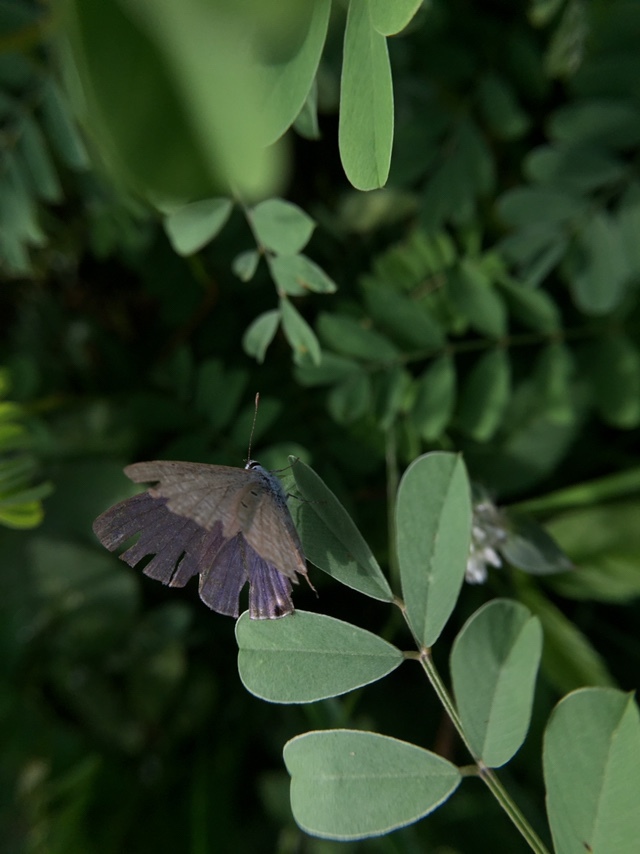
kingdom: Animalia
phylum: Arthropoda
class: Insecta
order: Lepidoptera
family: Lycaenidae
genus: Catochrysops
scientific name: Catochrysops strabo
